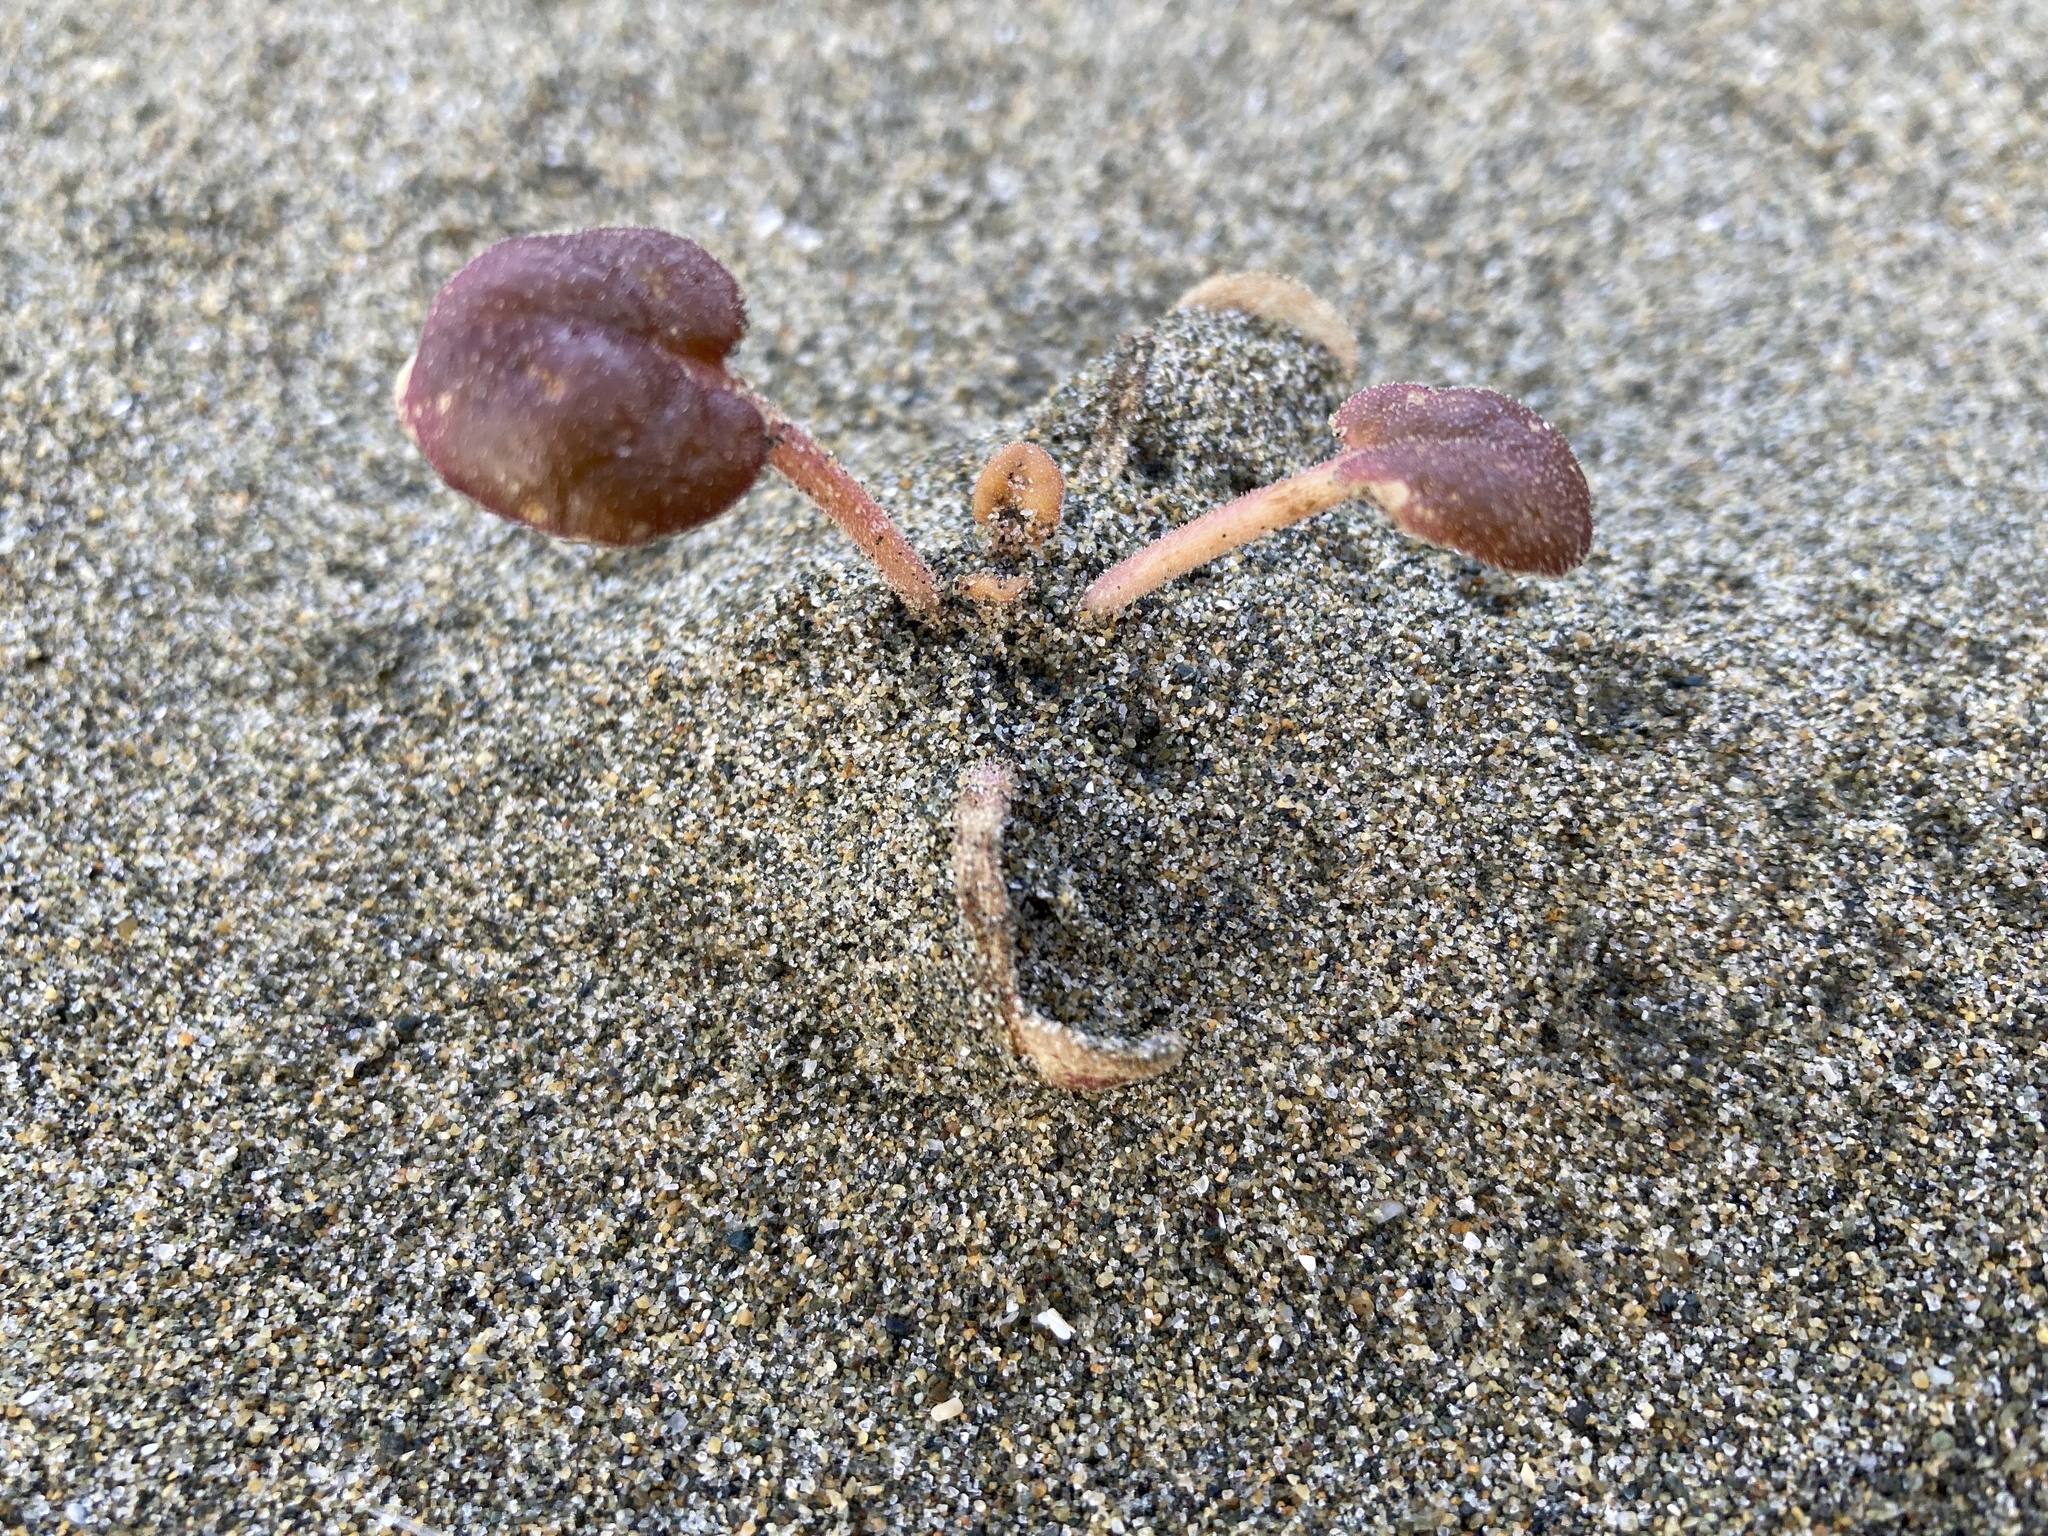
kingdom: Plantae
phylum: Tracheophyta
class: Magnoliopsida
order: Caryophyllales
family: Nyctaginaceae
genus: Abronia
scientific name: Abronia latifolia
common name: Yellow sand-verbena
